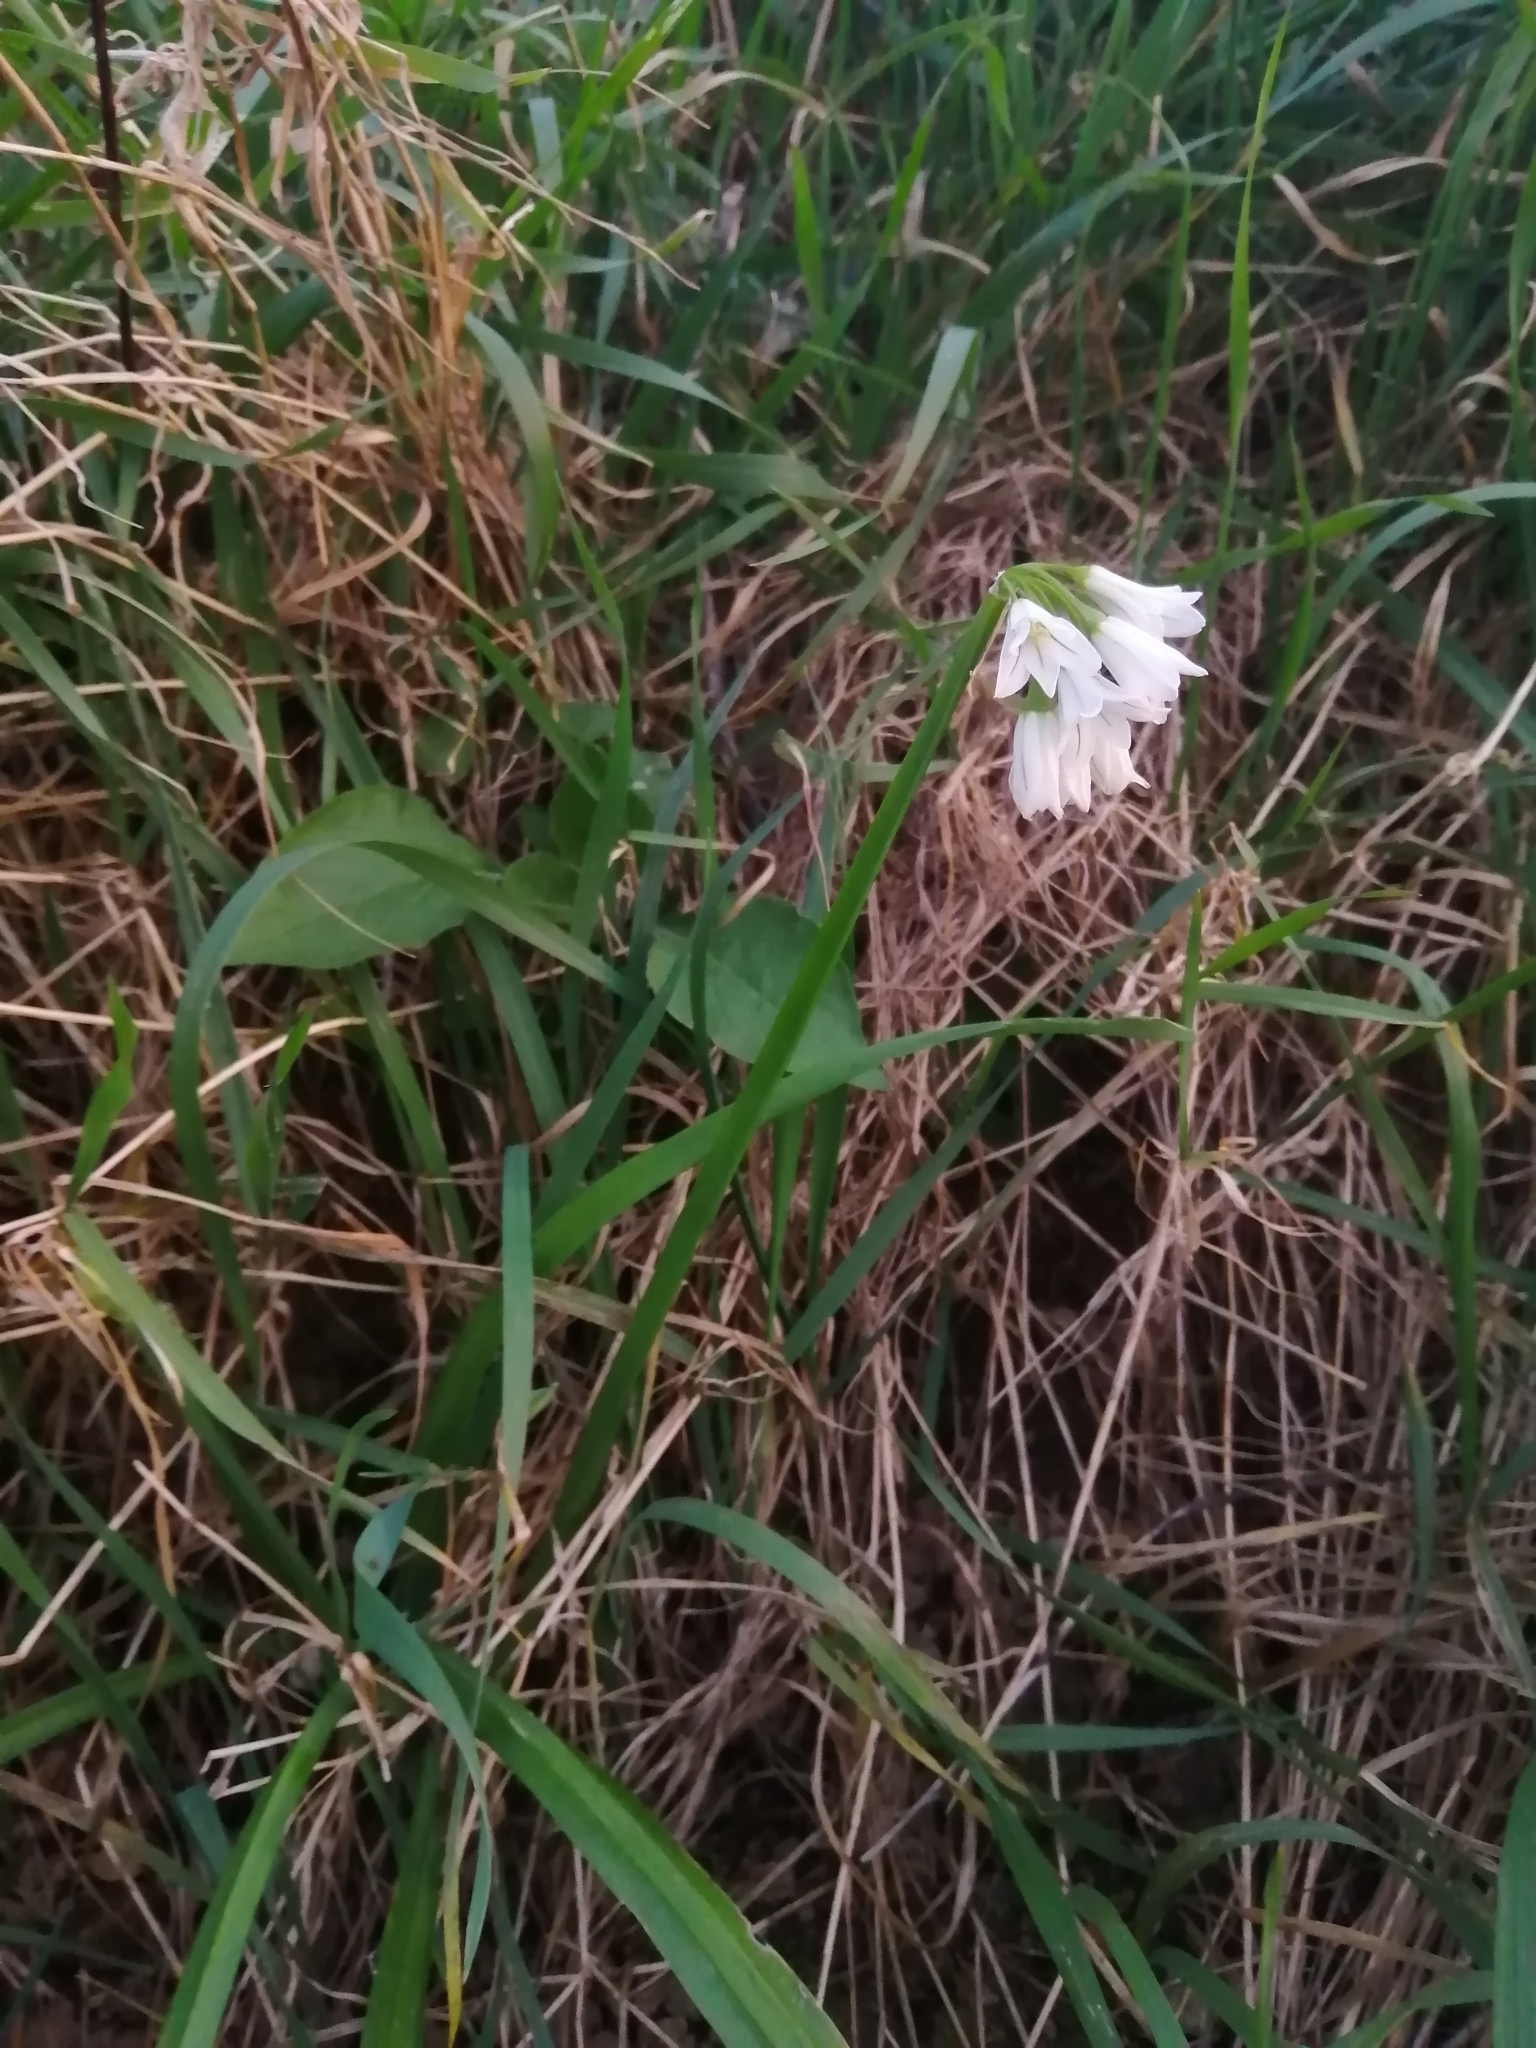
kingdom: Plantae
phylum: Tracheophyta
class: Liliopsida
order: Asparagales
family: Amaryllidaceae
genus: Allium
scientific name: Allium triquetrum
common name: Three-cornered garlic
